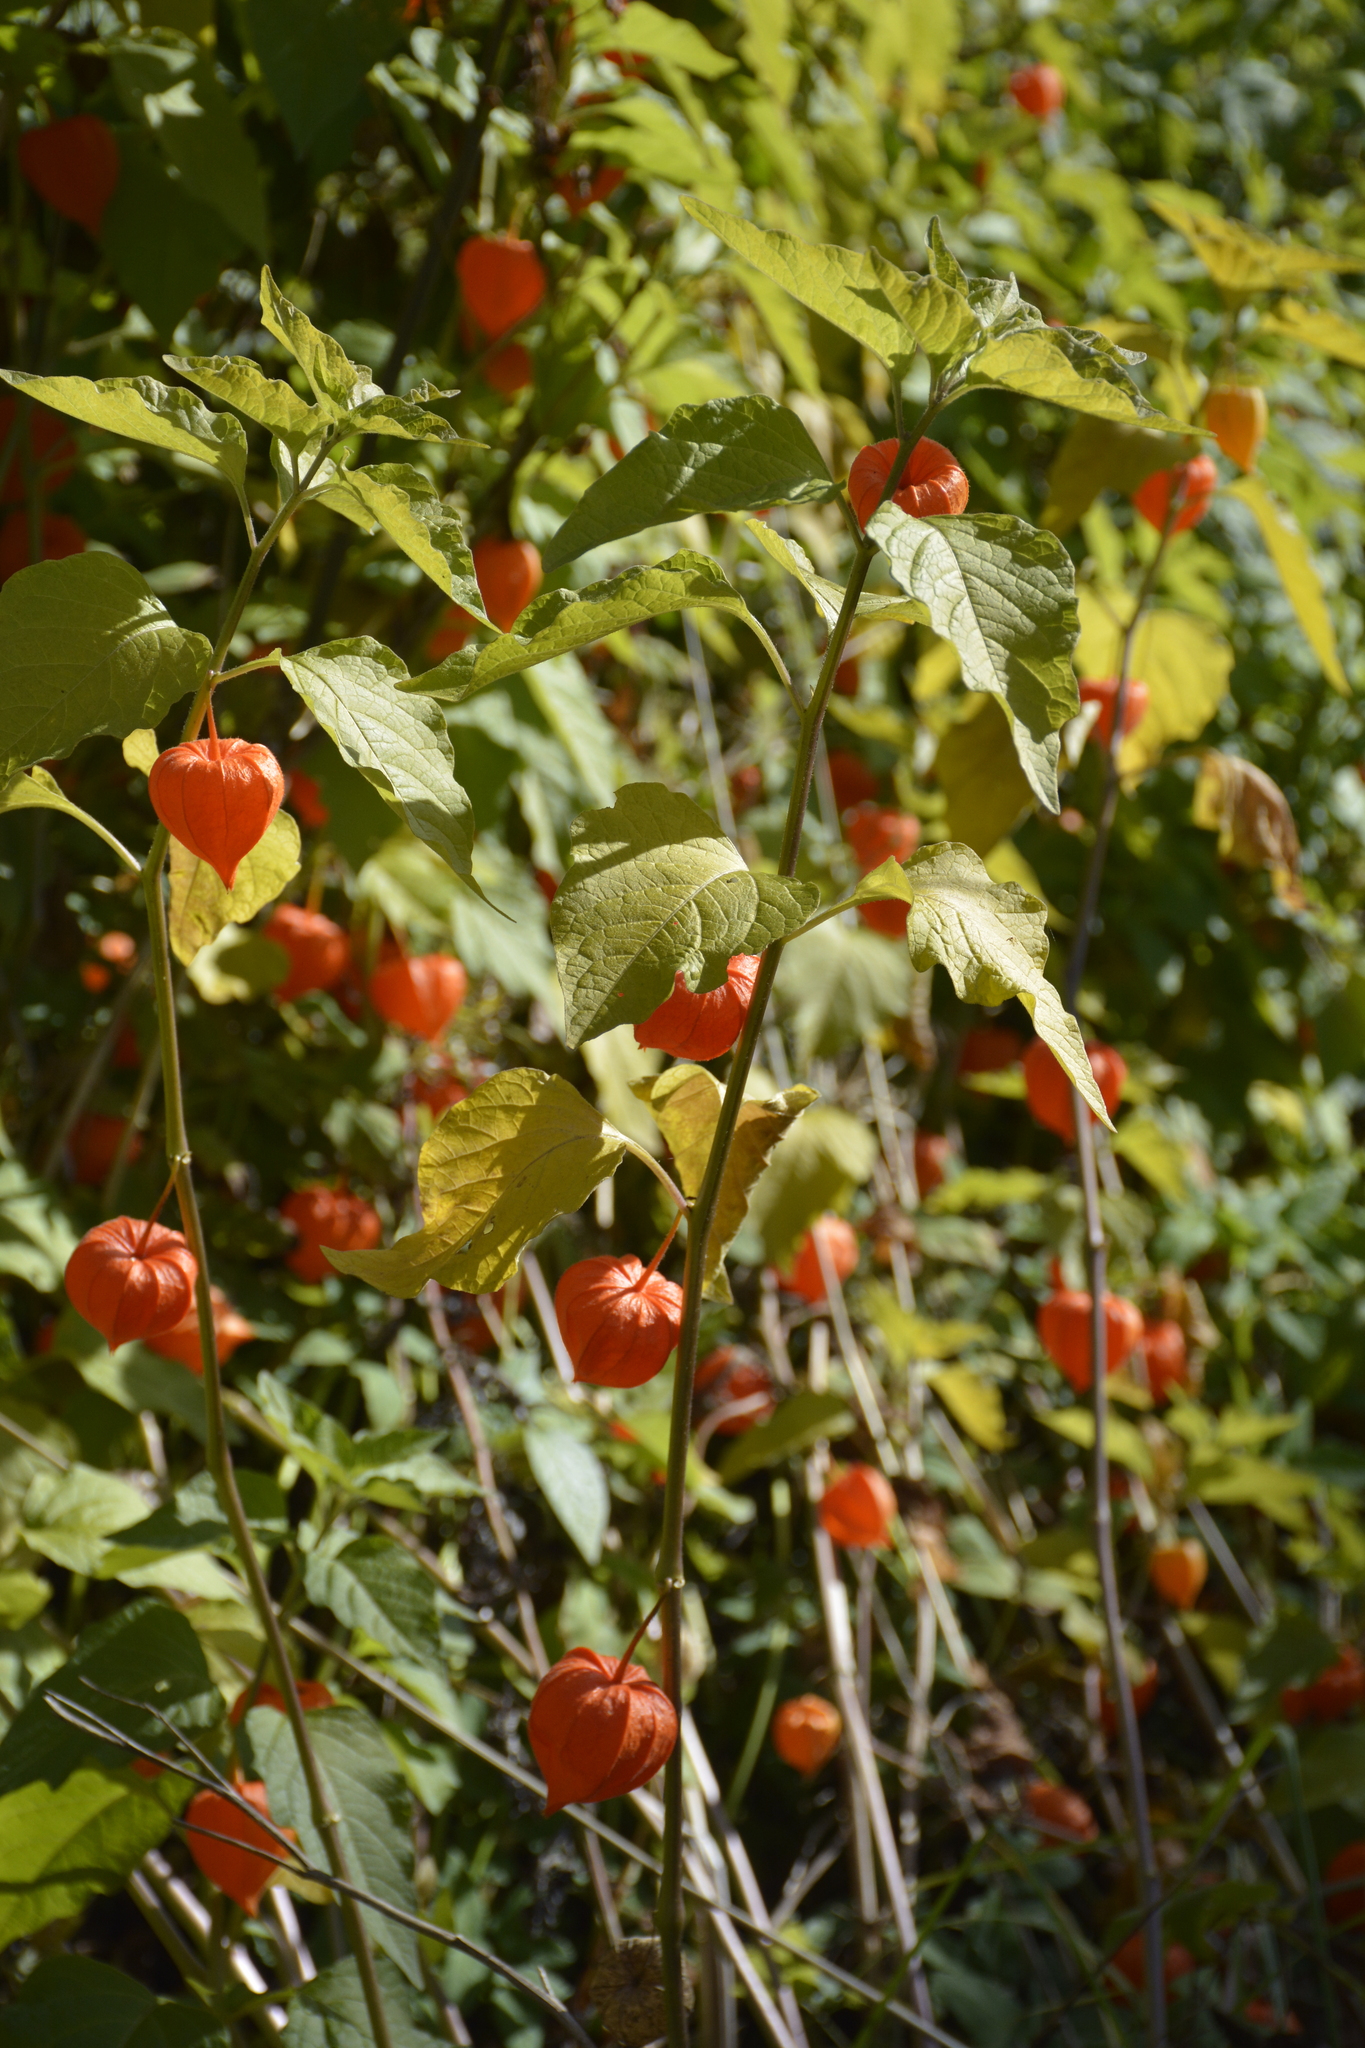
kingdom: Plantae
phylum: Tracheophyta
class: Magnoliopsida
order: Solanales
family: Solanaceae
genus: Alkekengi
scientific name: Alkekengi officinarum
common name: Japanese-lantern
